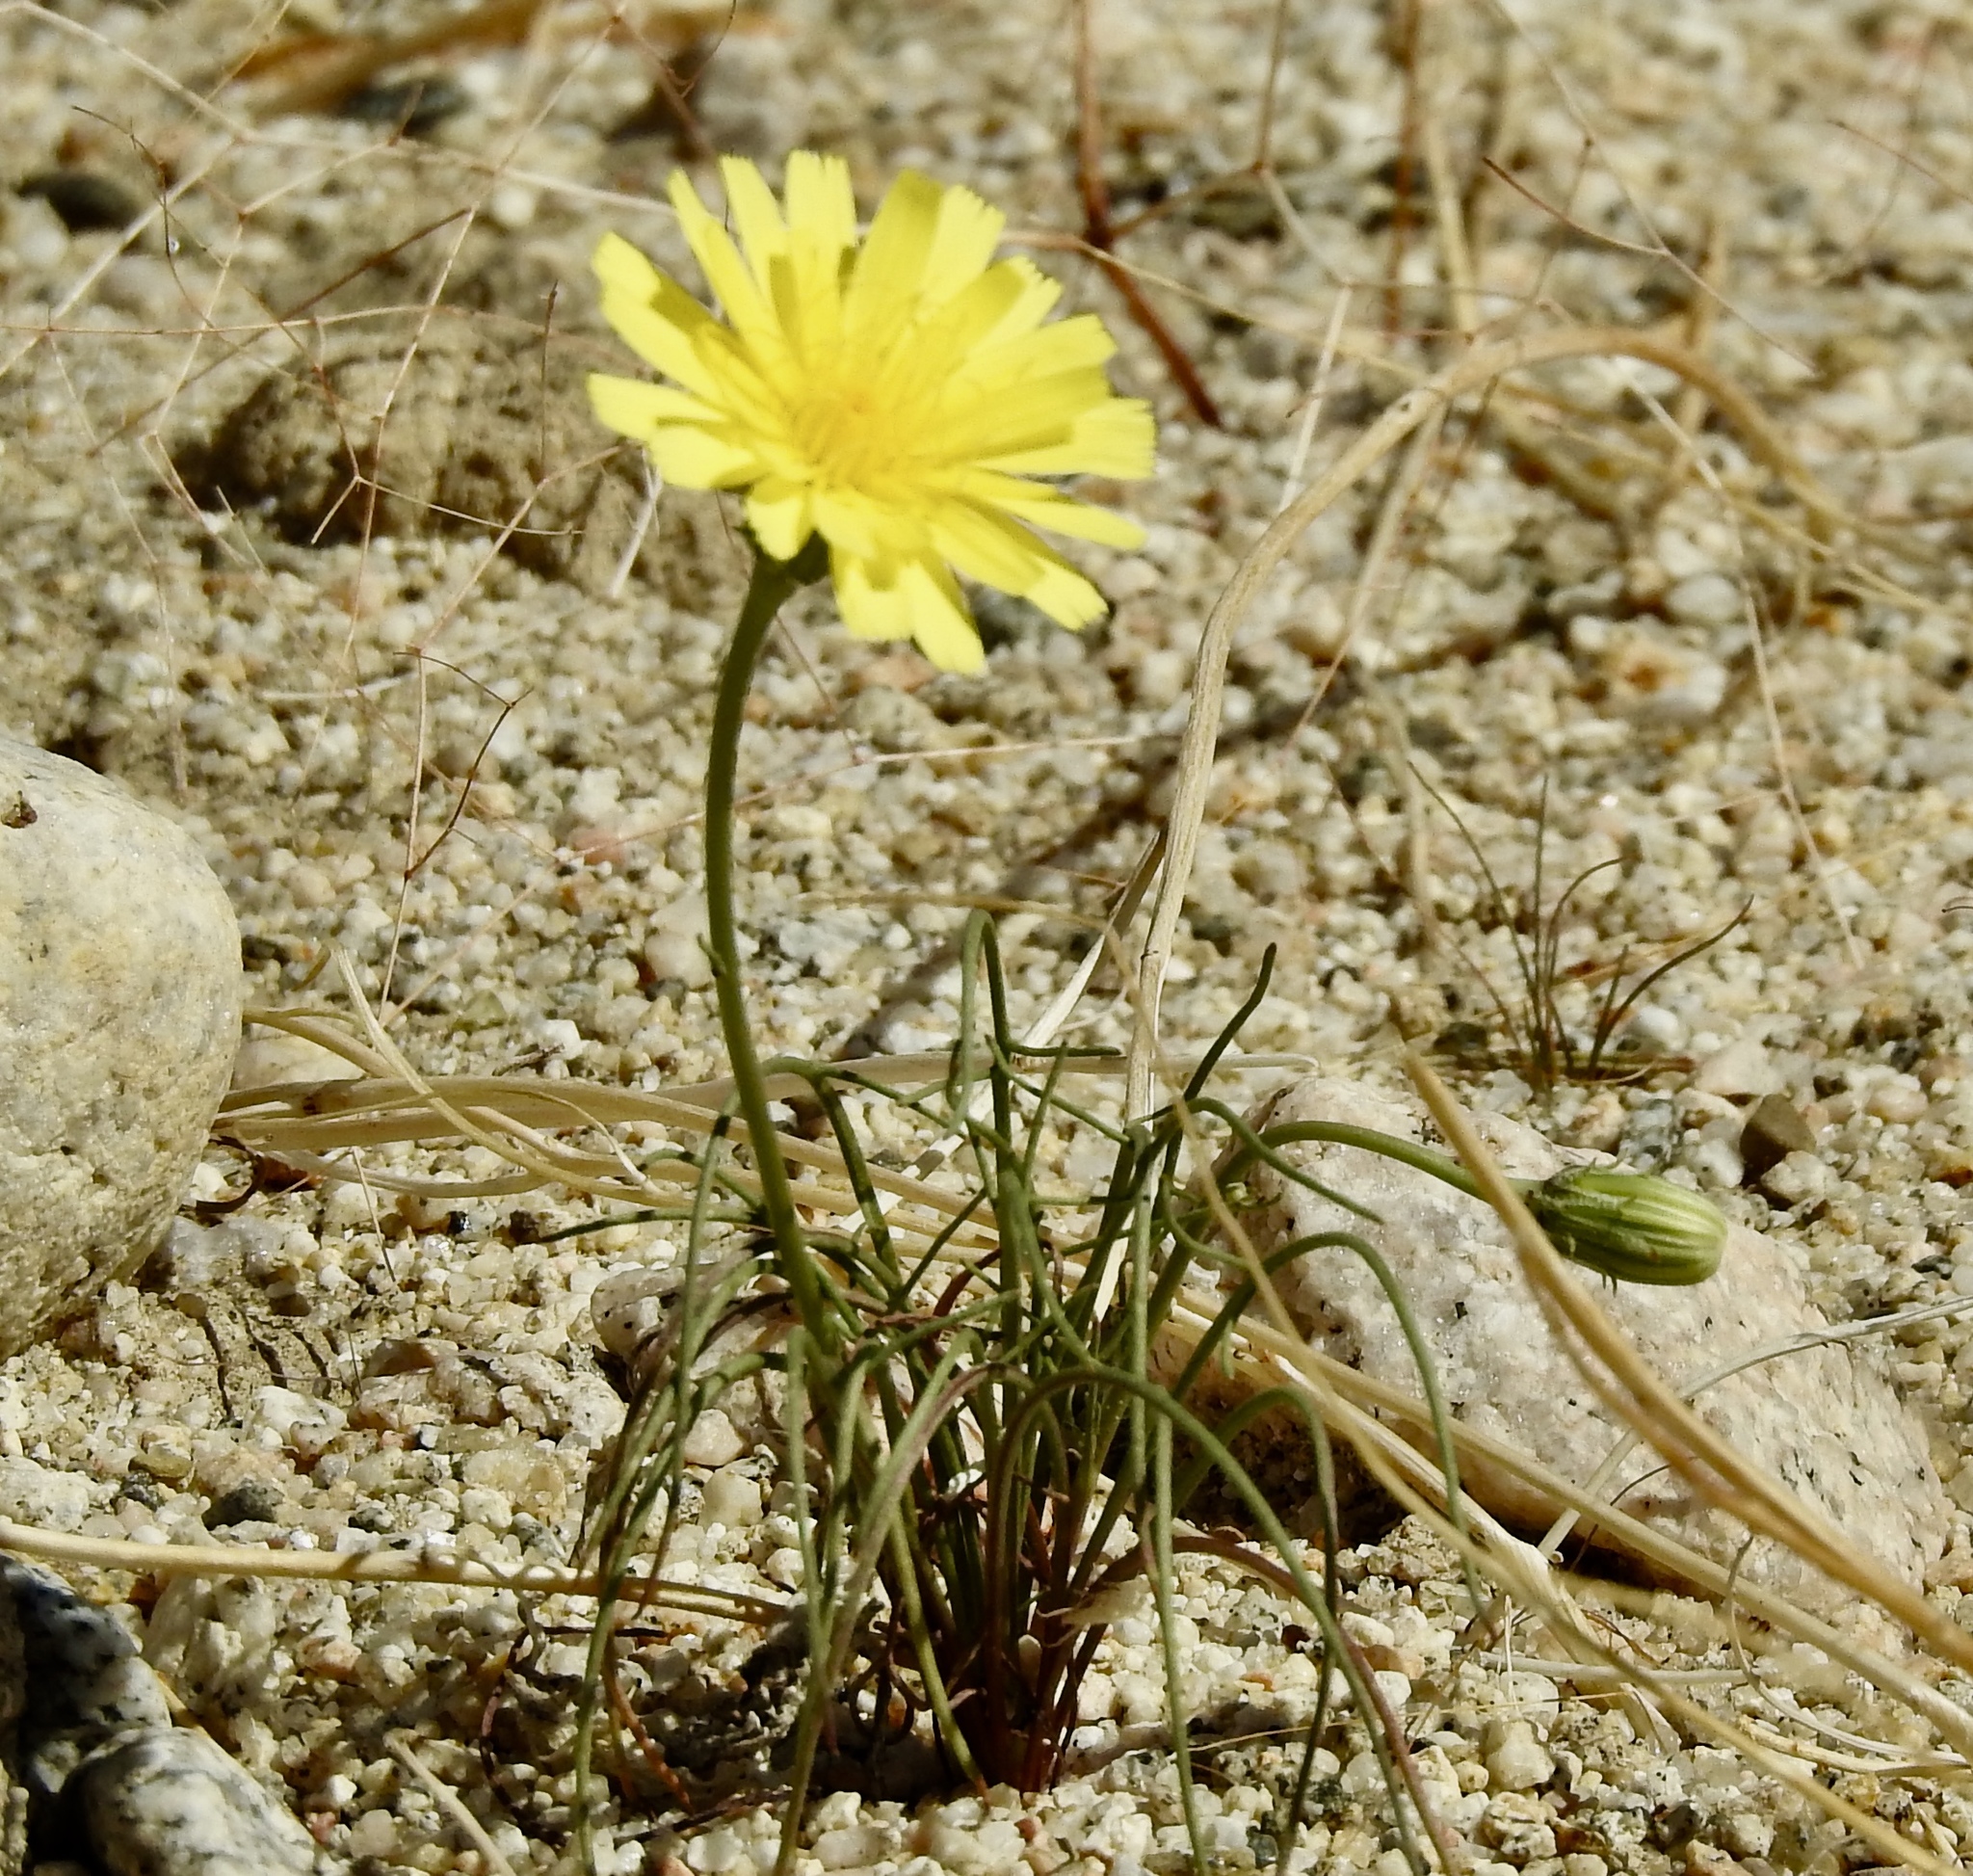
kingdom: Plantae
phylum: Tracheophyta
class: Magnoliopsida
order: Asterales
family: Asteraceae
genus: Malacothrix
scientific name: Malacothrix glabrata
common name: Smooth desert-dandelion
